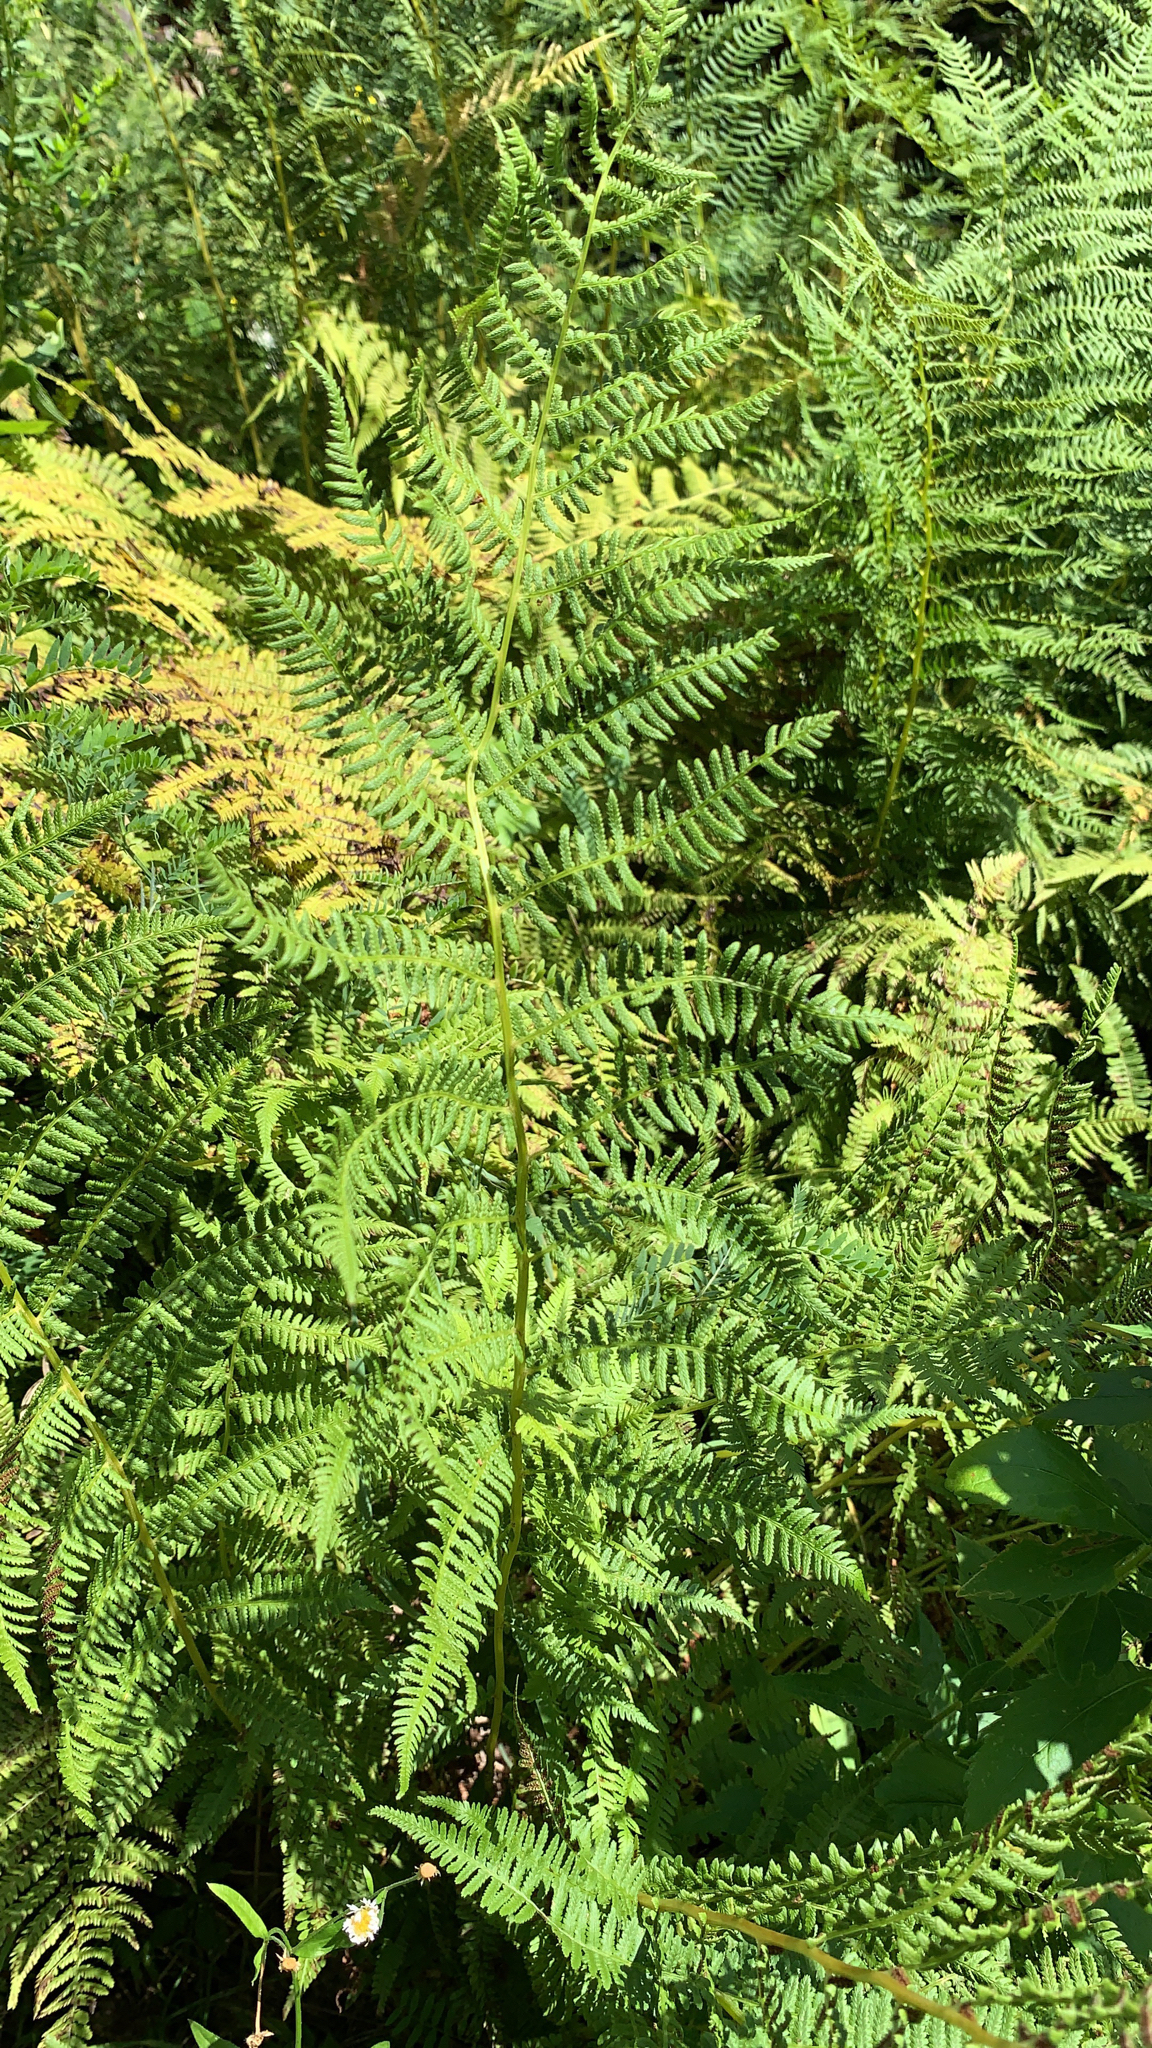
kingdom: Plantae
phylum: Tracheophyta
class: Polypodiopsida
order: Polypodiales
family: Thelypteridaceae
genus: Thelypteris
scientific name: Thelypteris palustris
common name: Marsh fern
